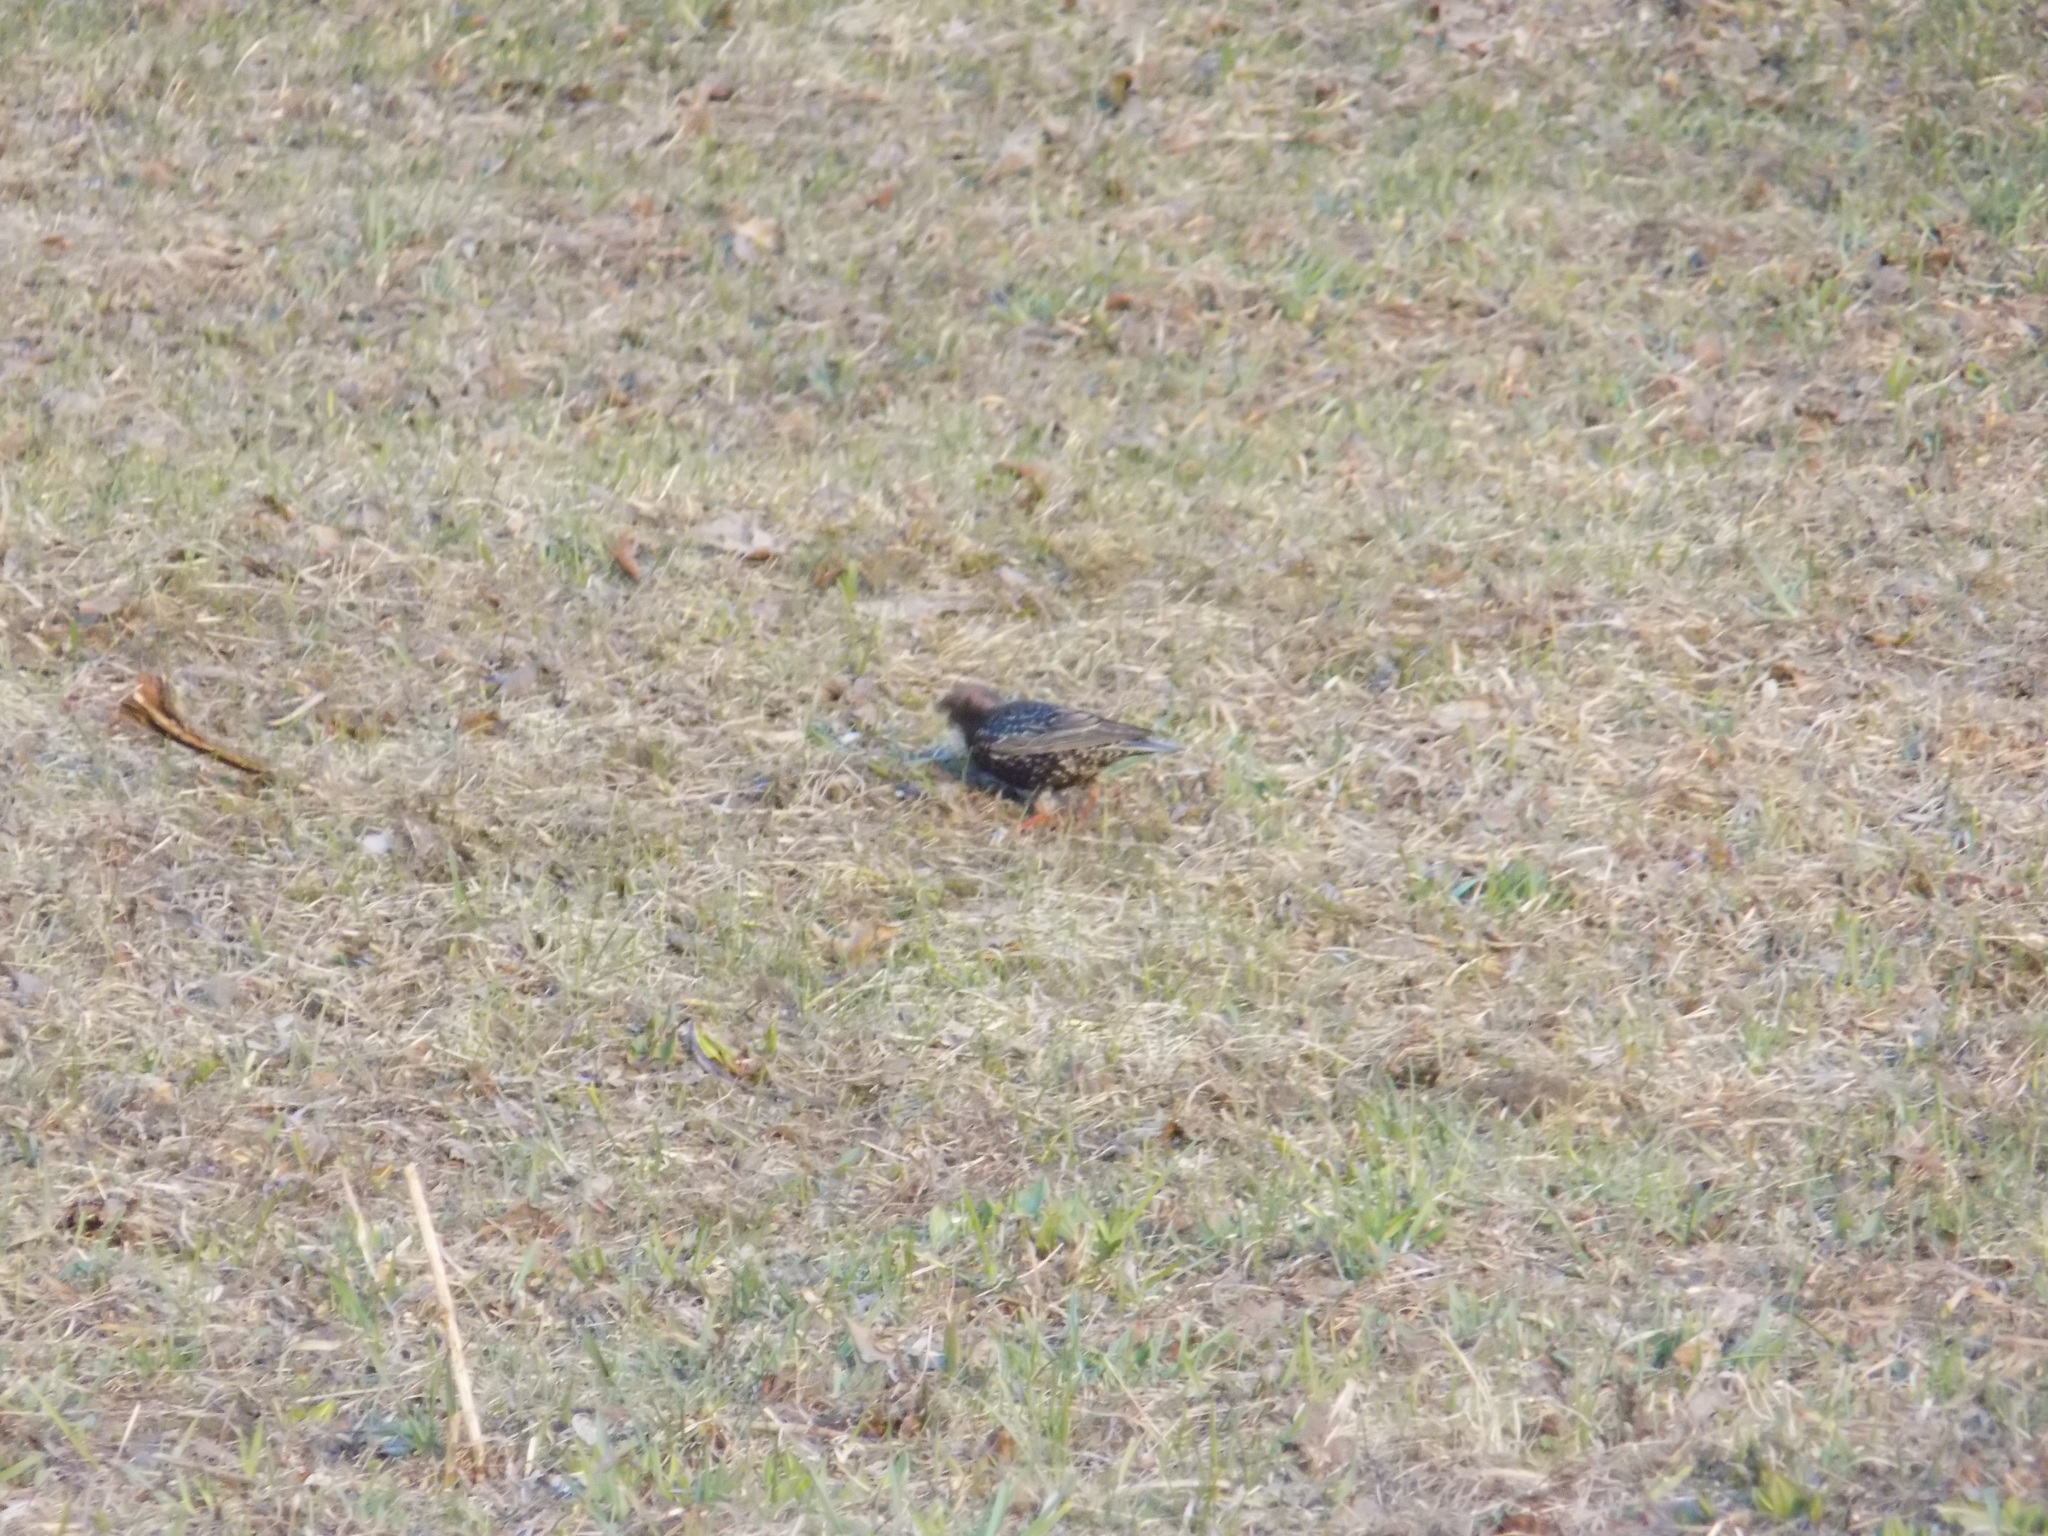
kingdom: Animalia
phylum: Chordata
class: Aves
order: Passeriformes
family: Sturnidae
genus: Sturnus
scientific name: Sturnus vulgaris
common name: Common starling
